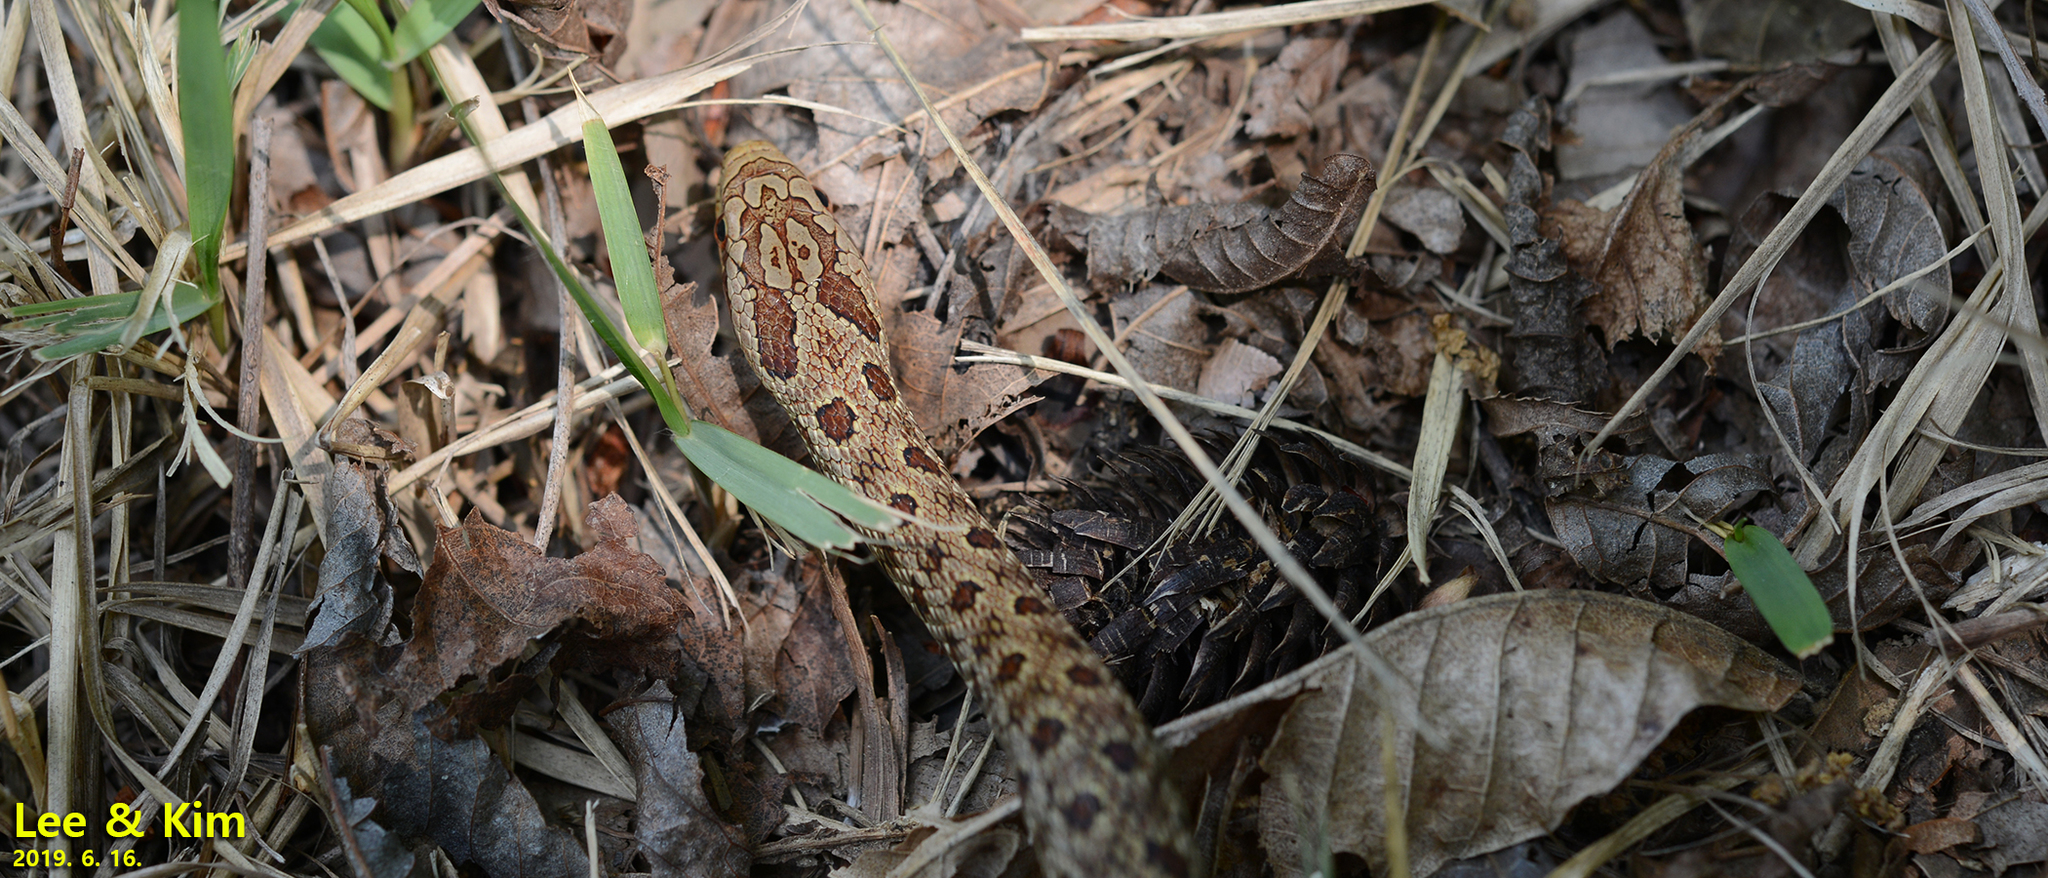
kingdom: Animalia
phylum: Chordata
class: Squamata
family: Colubridae
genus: Elaphe
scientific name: Elaphe dione
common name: Dione ratsnake
